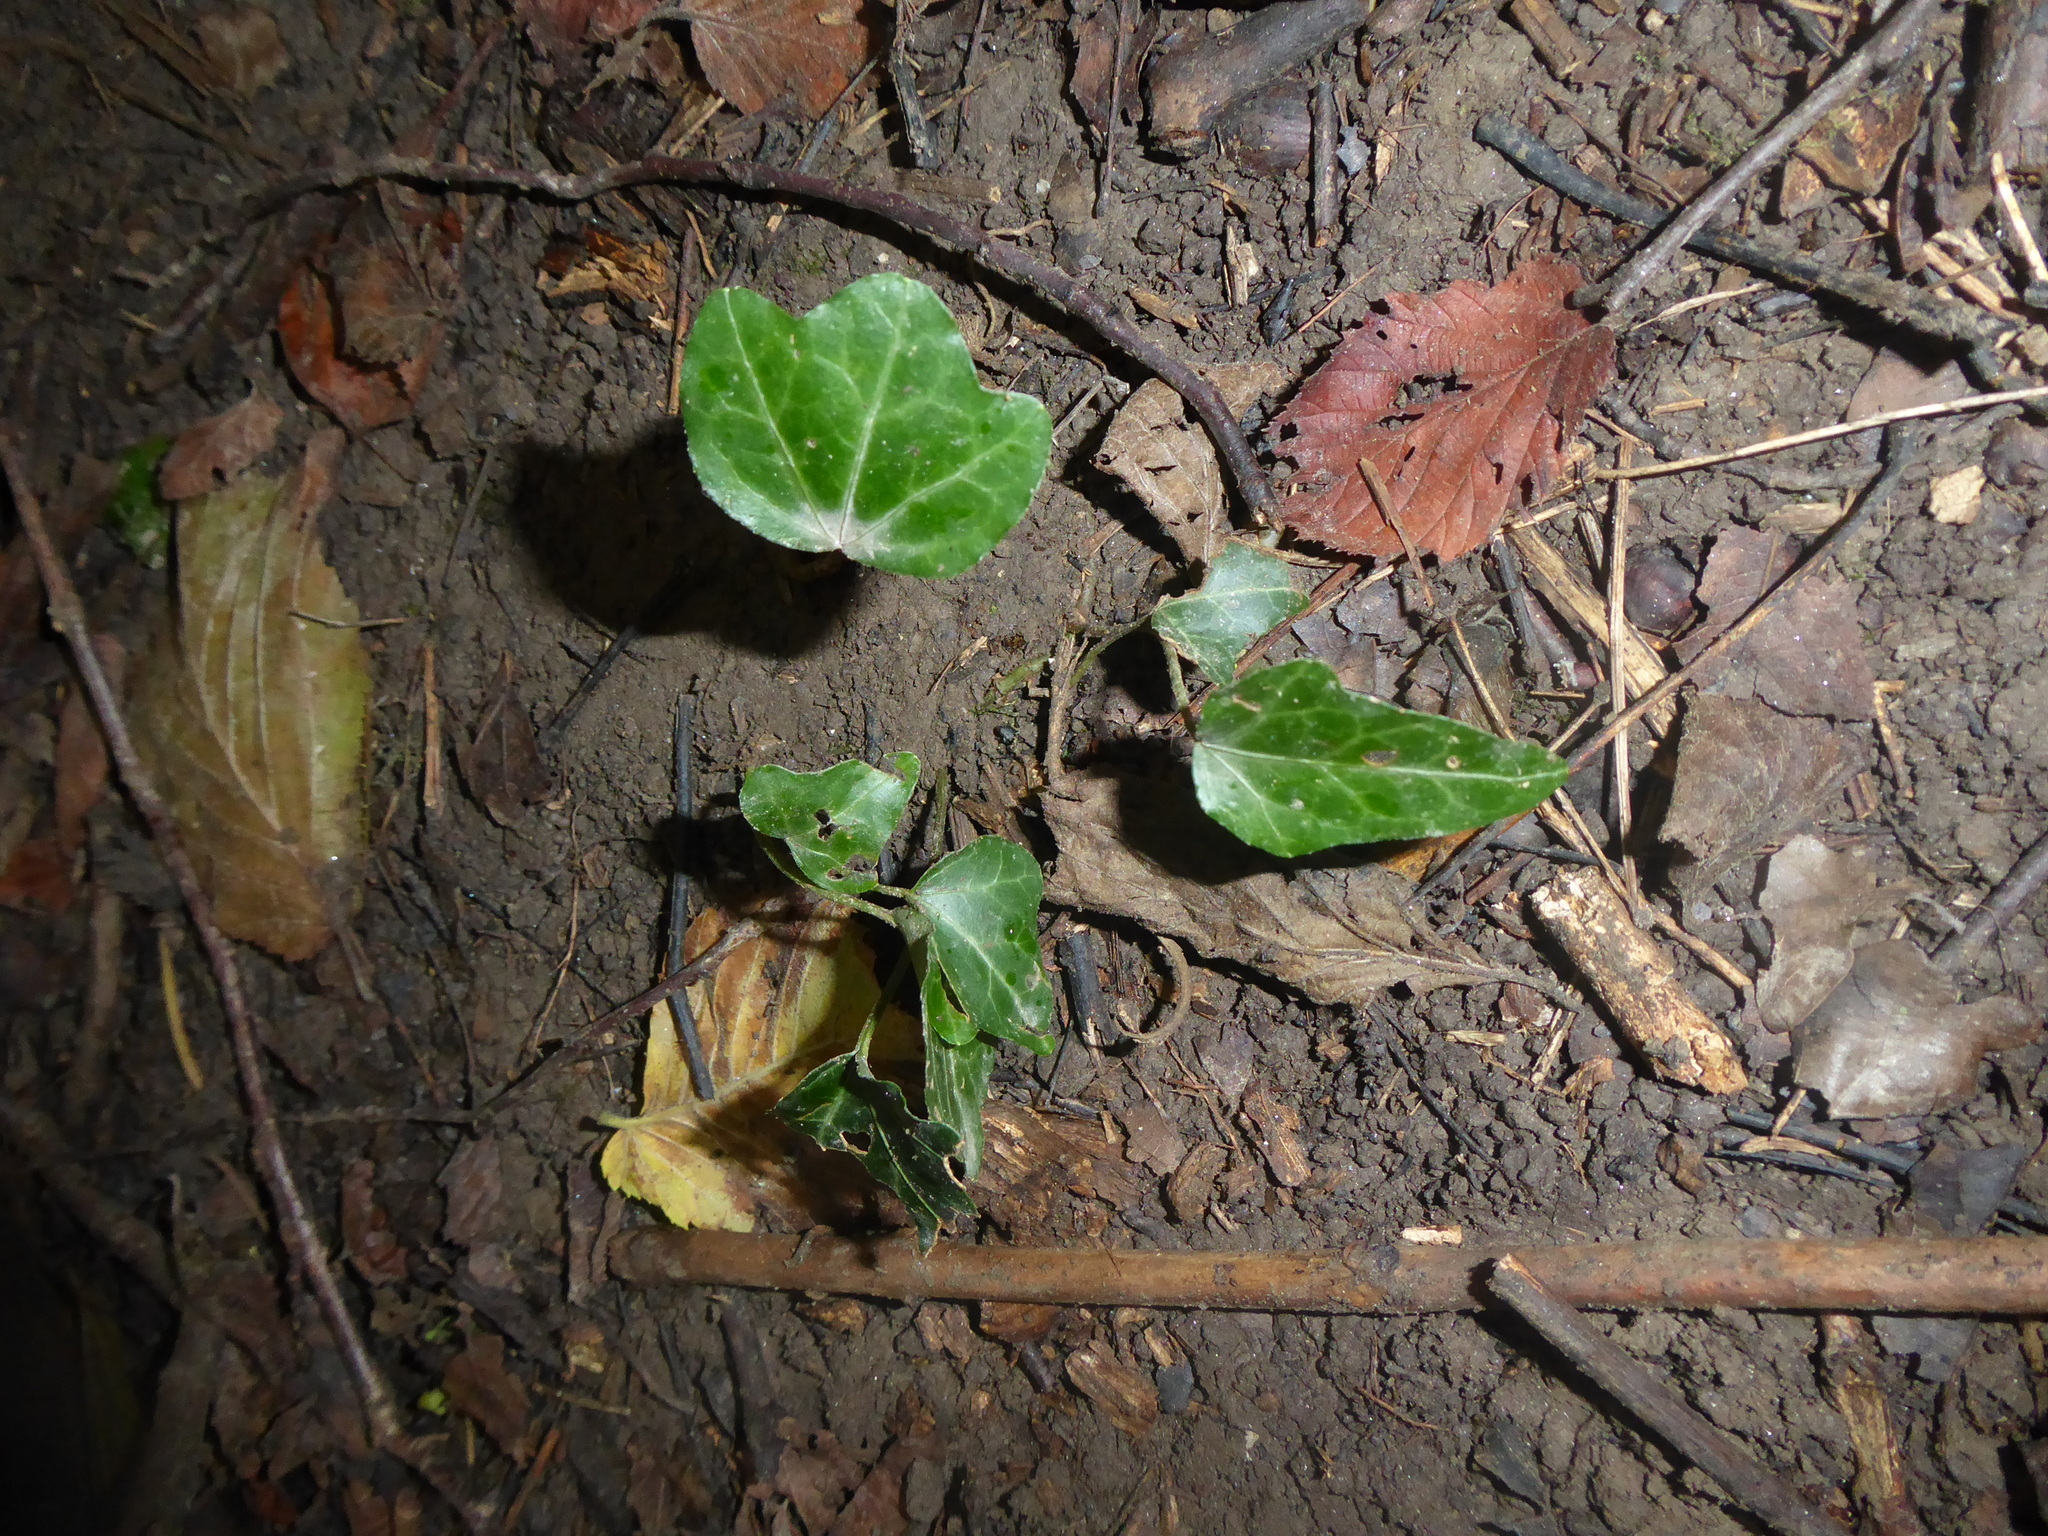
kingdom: Plantae
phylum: Tracheophyta
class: Magnoliopsida
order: Apiales
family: Araliaceae
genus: Hedera
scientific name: Hedera helix
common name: Ivy
